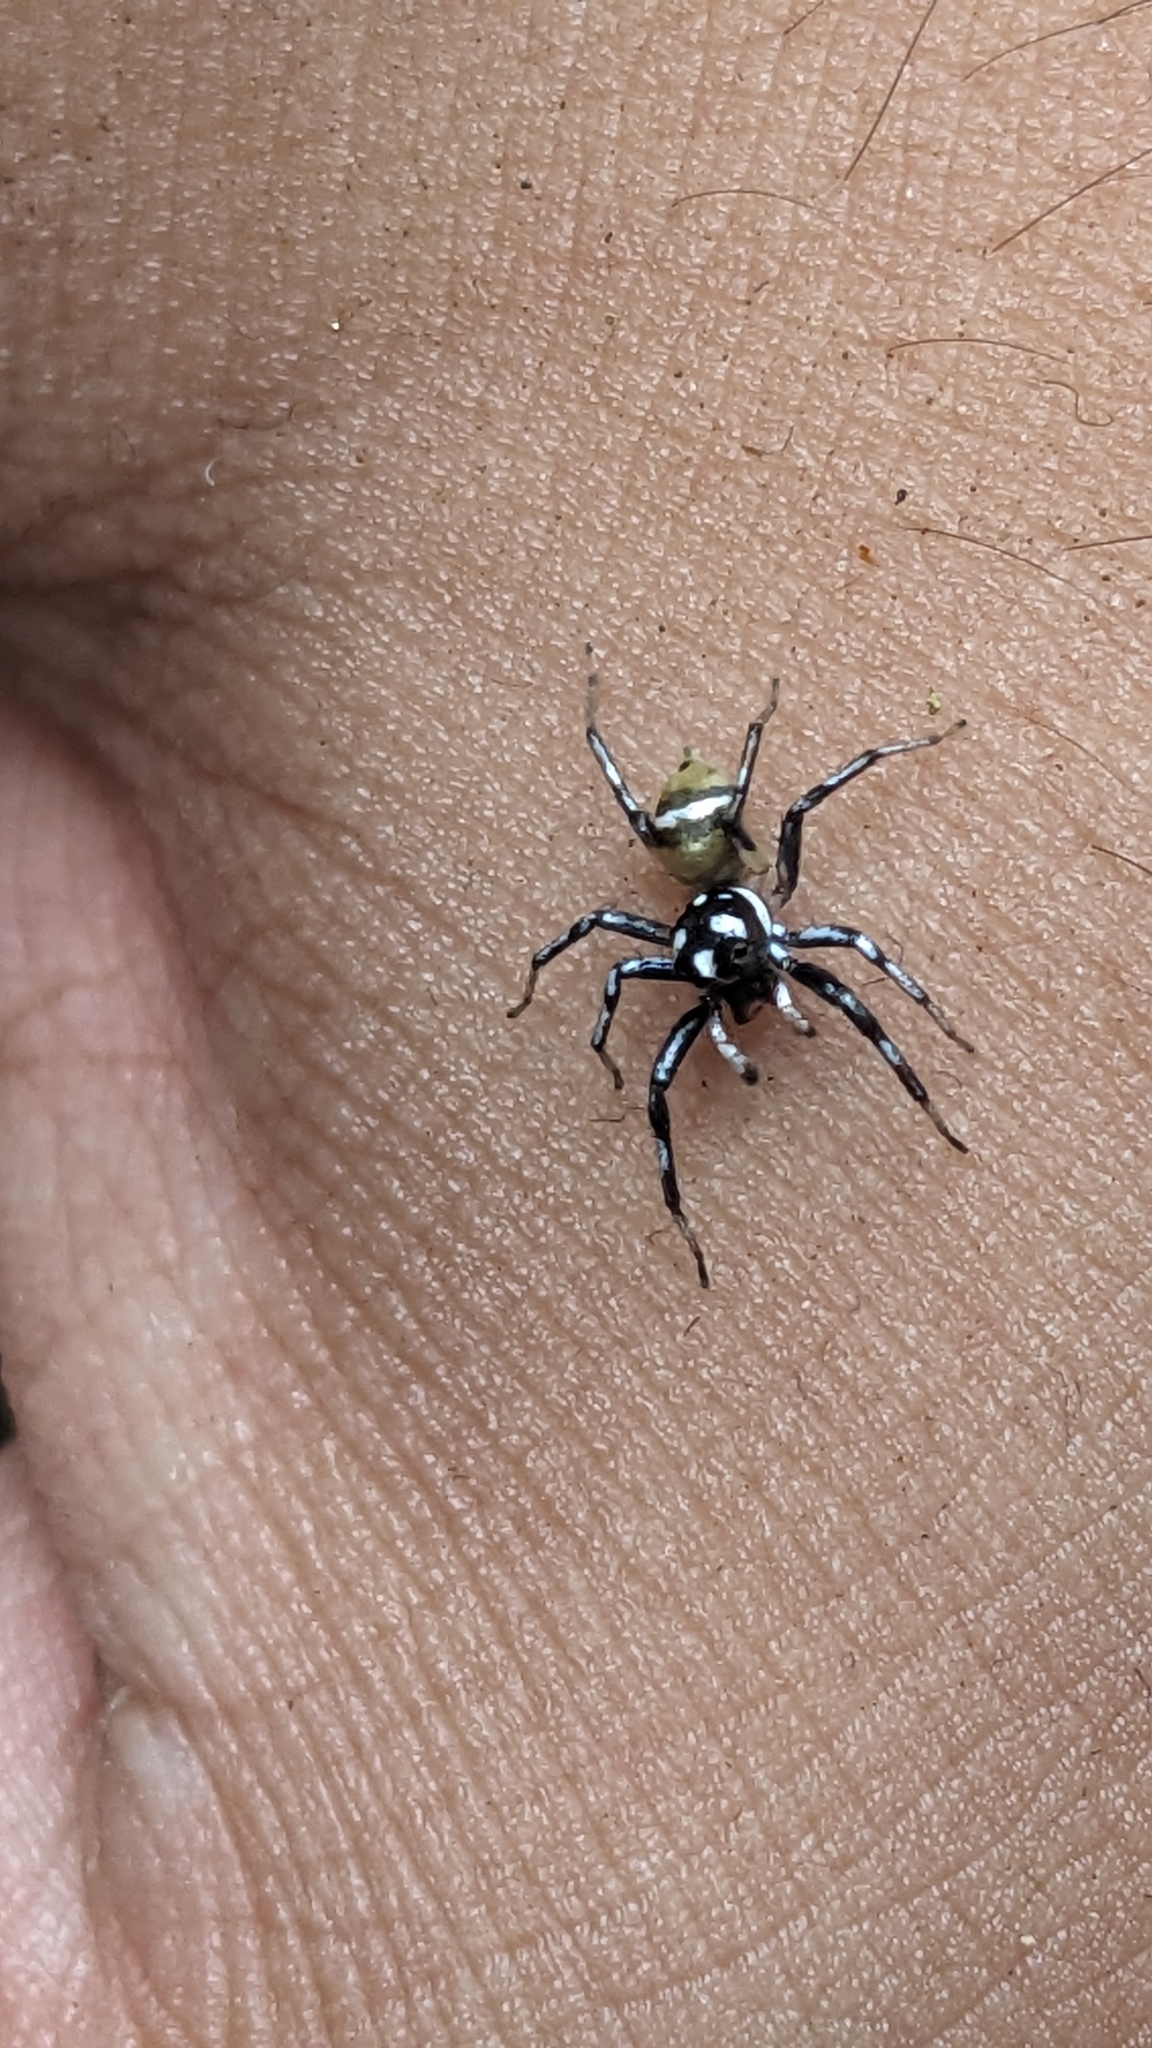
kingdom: Animalia
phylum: Arthropoda
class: Arachnida
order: Araneae
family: Salticidae
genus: Phintella
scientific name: Phintella piatensis
